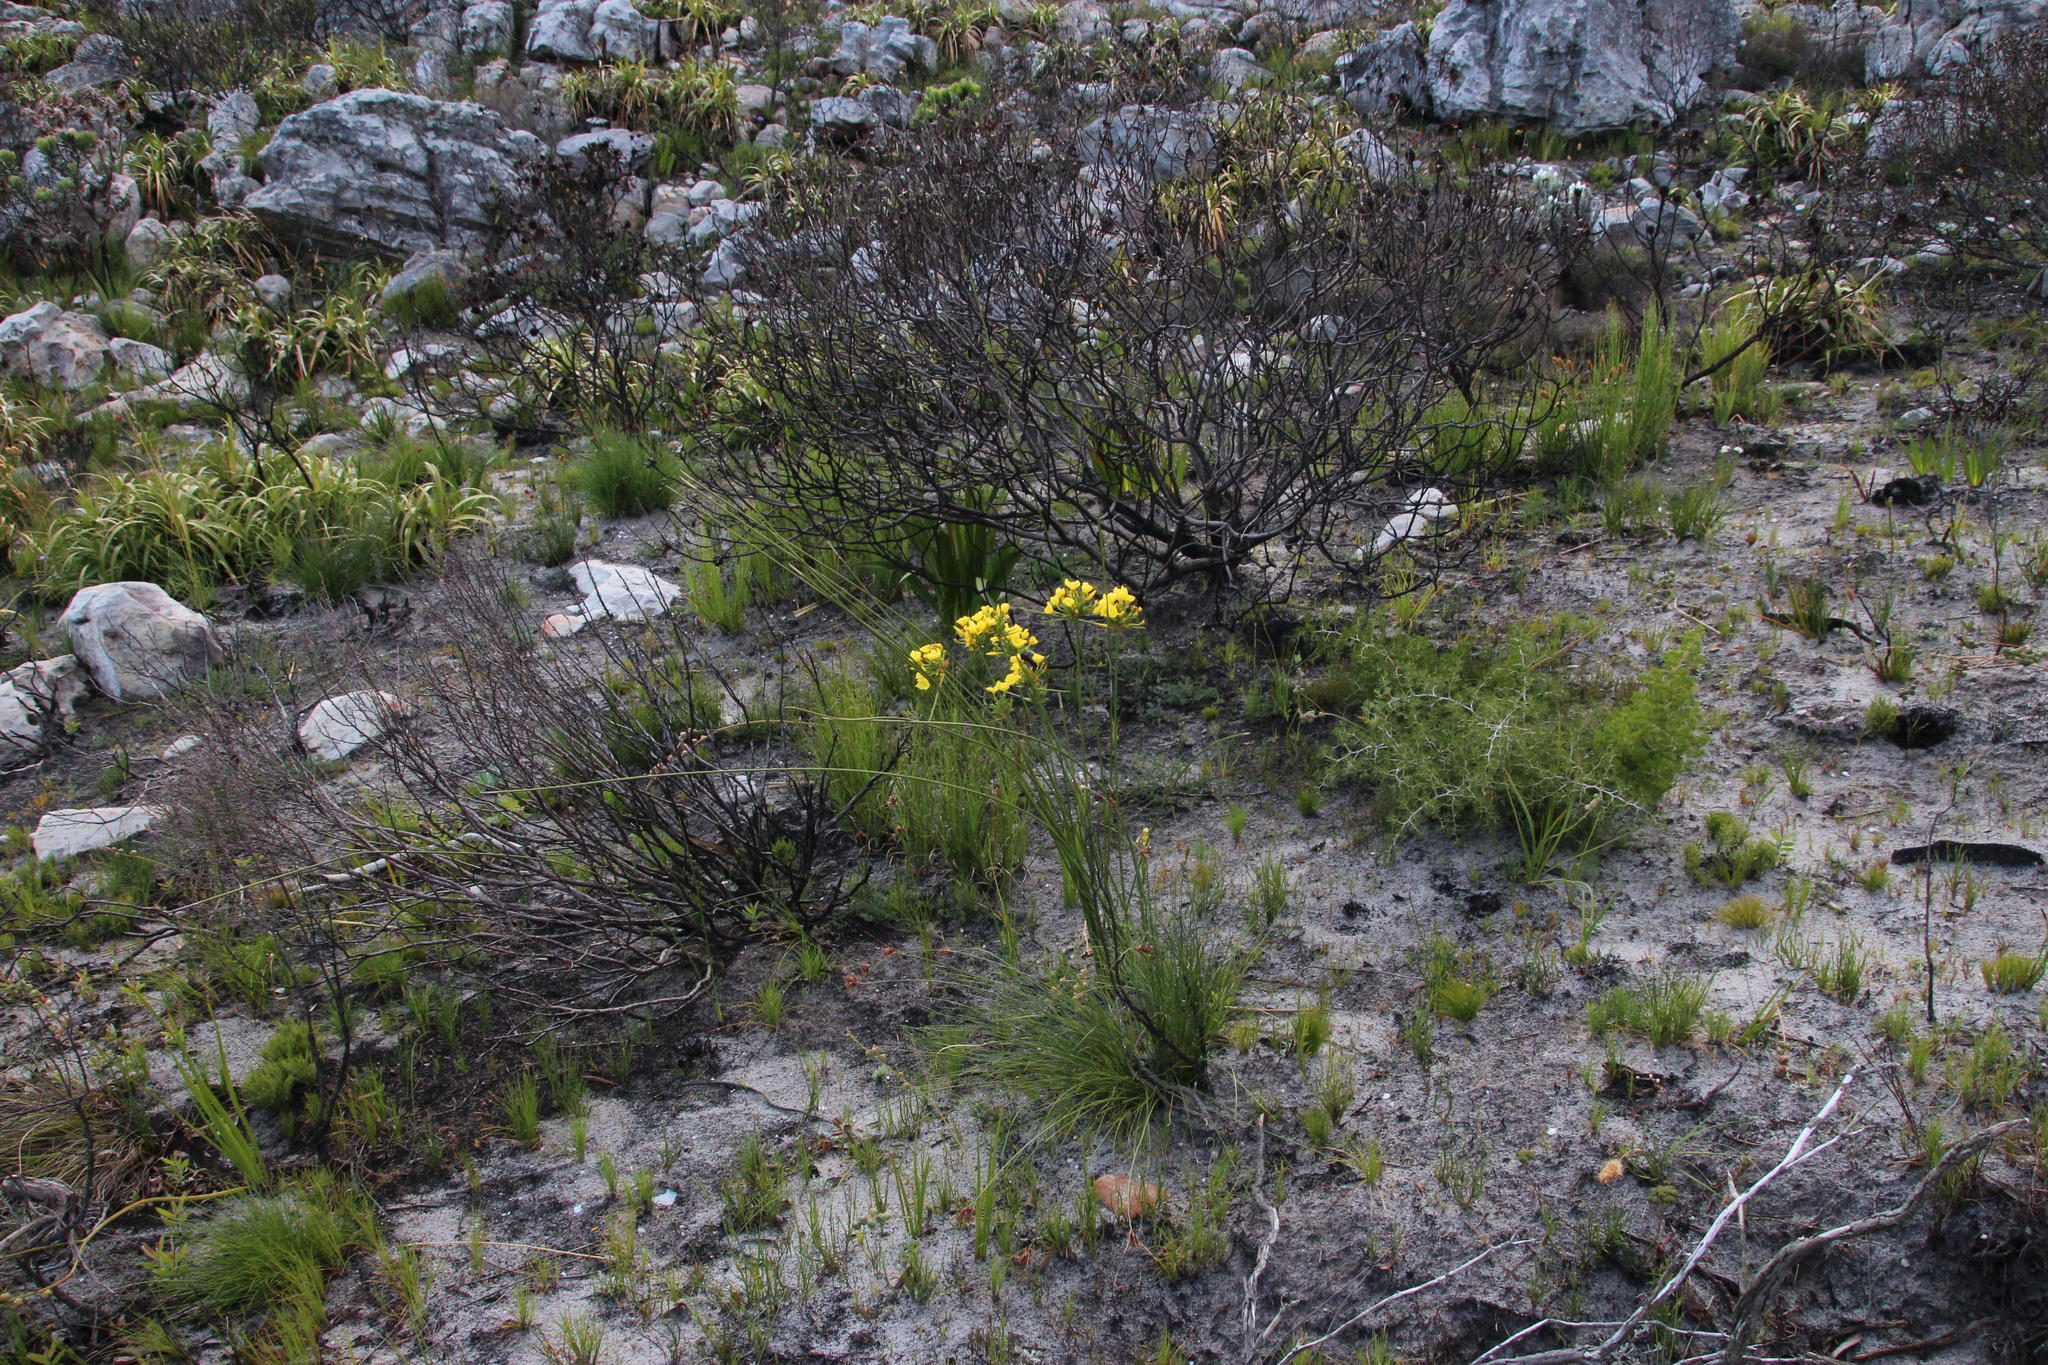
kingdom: Plantae
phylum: Tracheophyta
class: Liliopsida
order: Asparagales
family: Iridaceae
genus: Bobartia
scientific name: Bobartia indica
